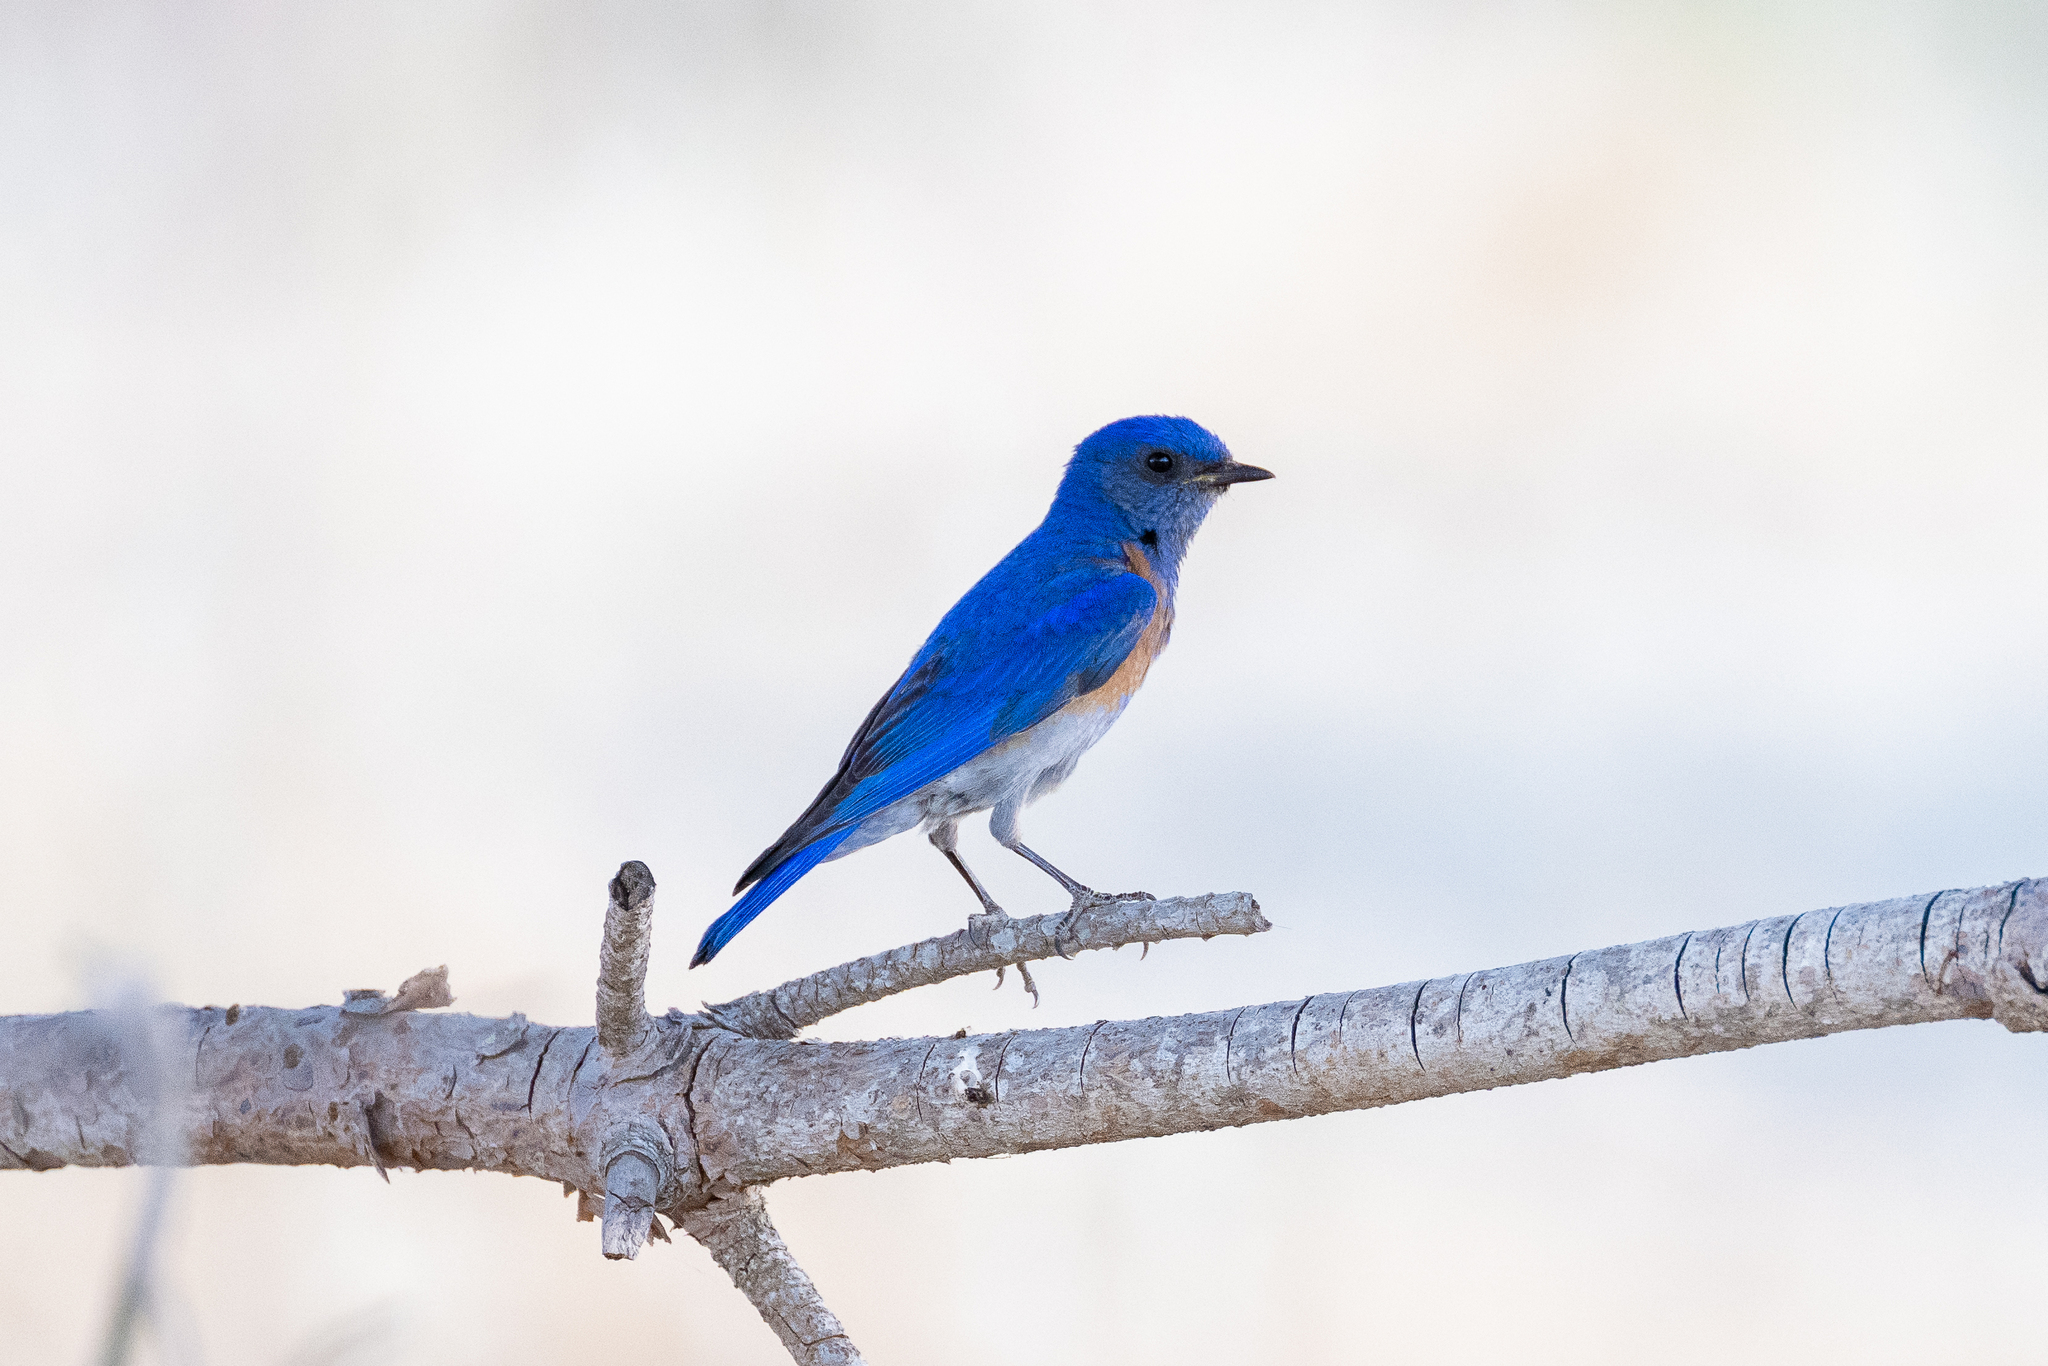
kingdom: Animalia
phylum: Chordata
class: Aves
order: Passeriformes
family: Turdidae
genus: Sialia
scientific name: Sialia mexicana
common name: Western bluebird
